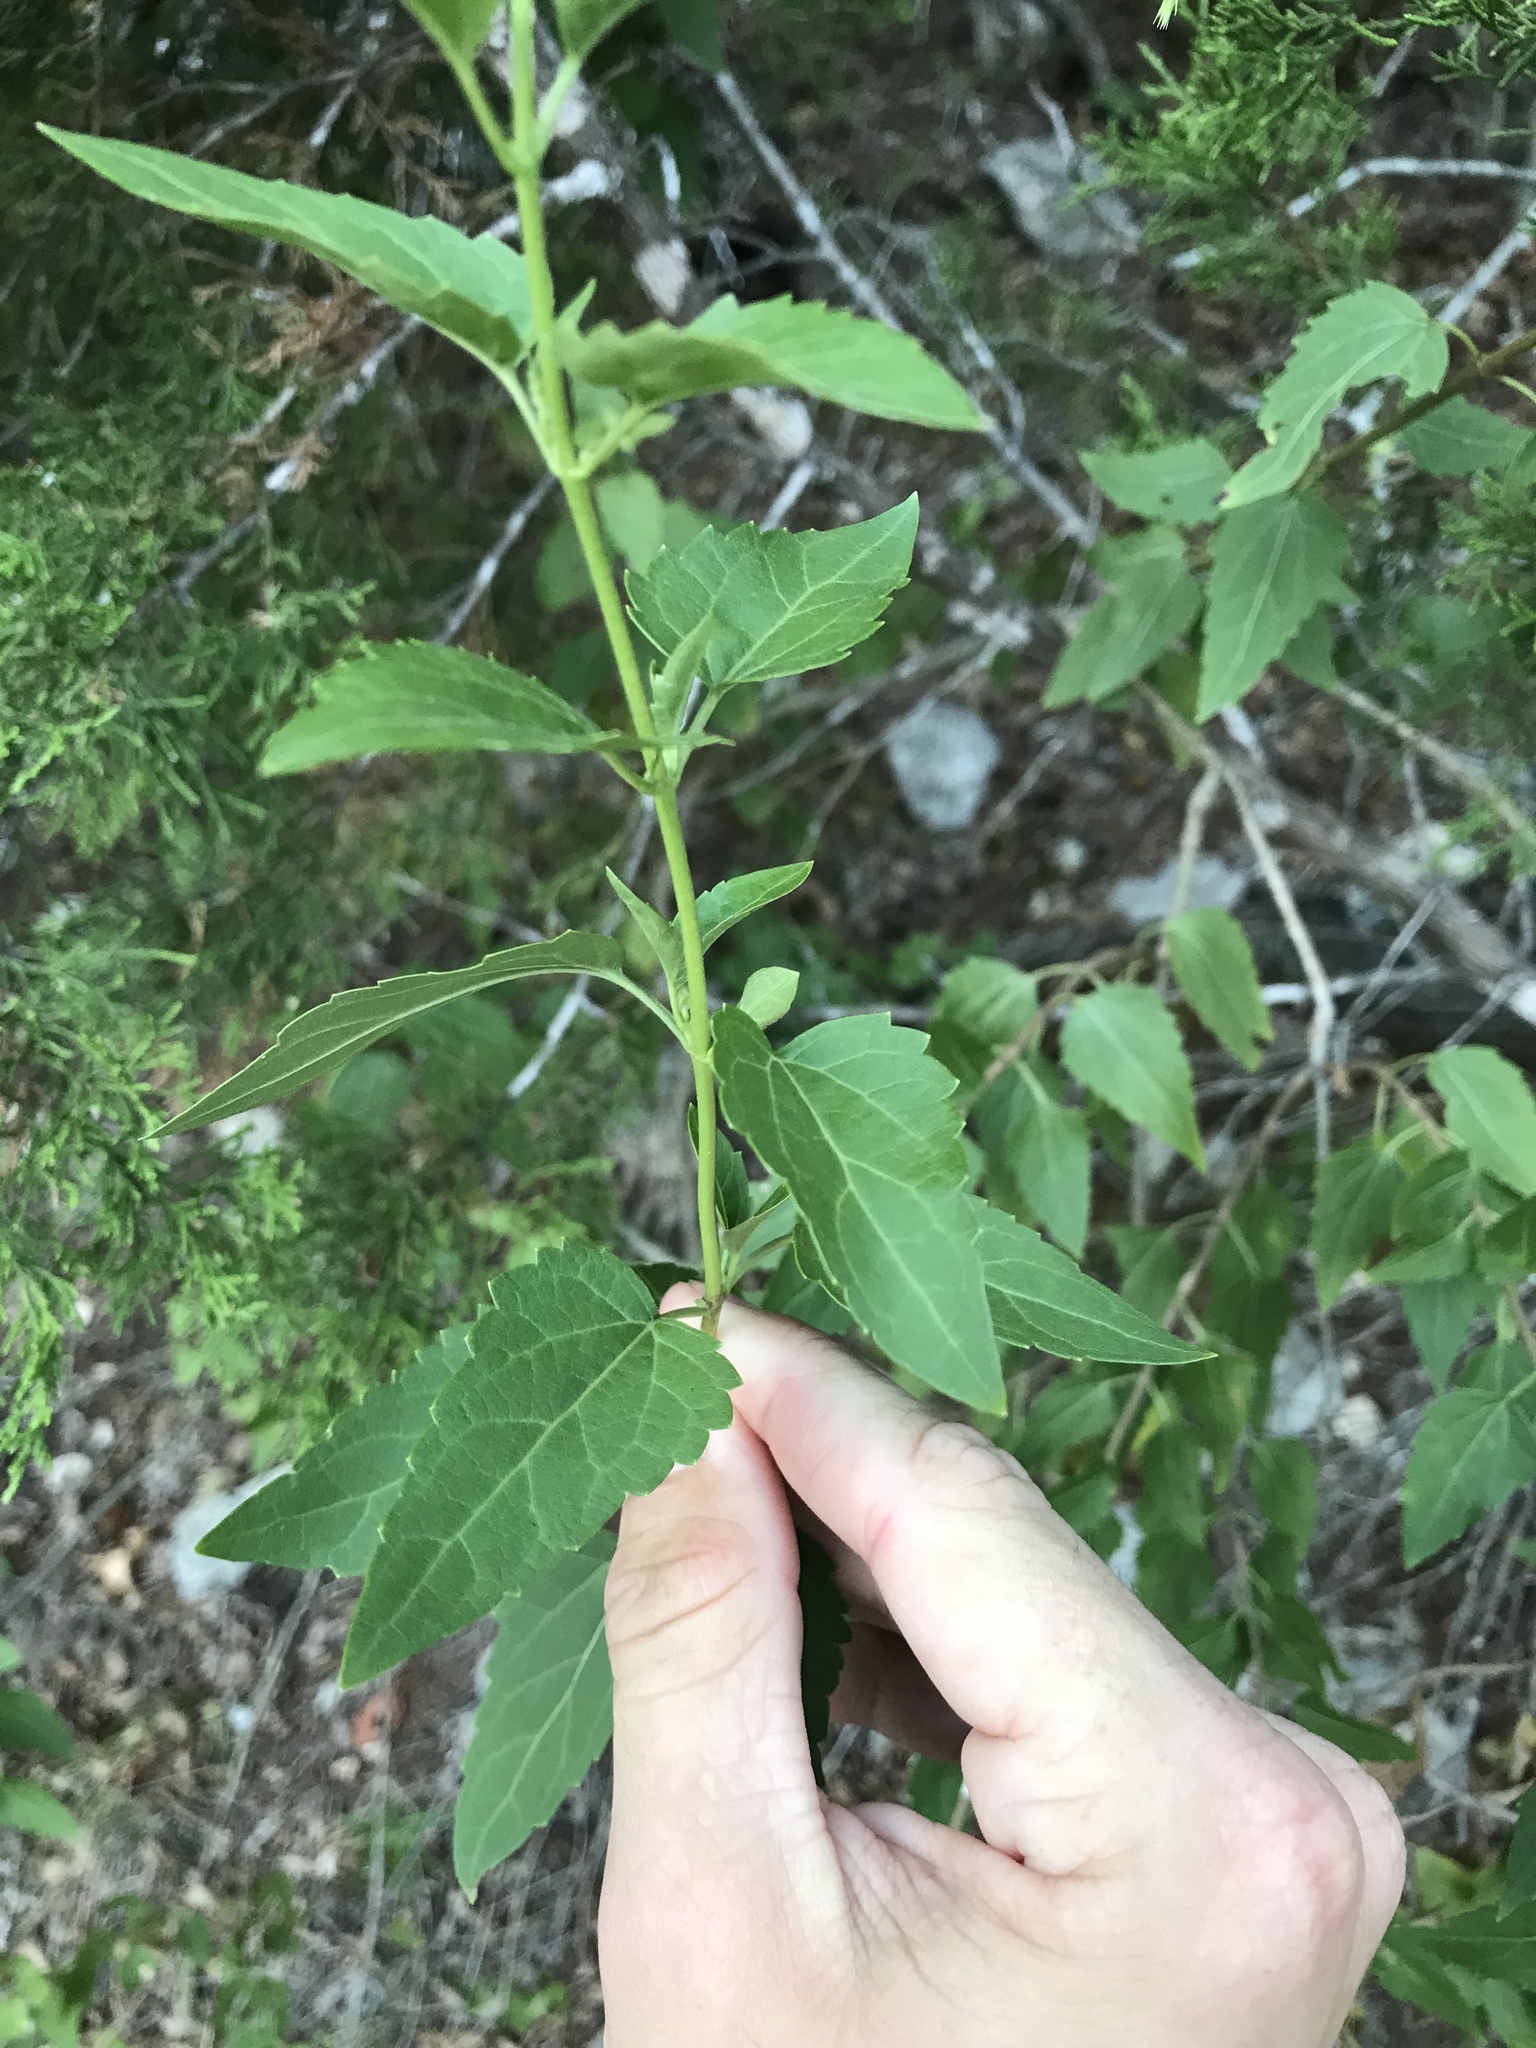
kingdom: Plantae
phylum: Tracheophyta
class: Magnoliopsida
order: Asterales
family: Asteraceae
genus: Ageratina
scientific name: Ageratina havanensis
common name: Havana snakeroot
